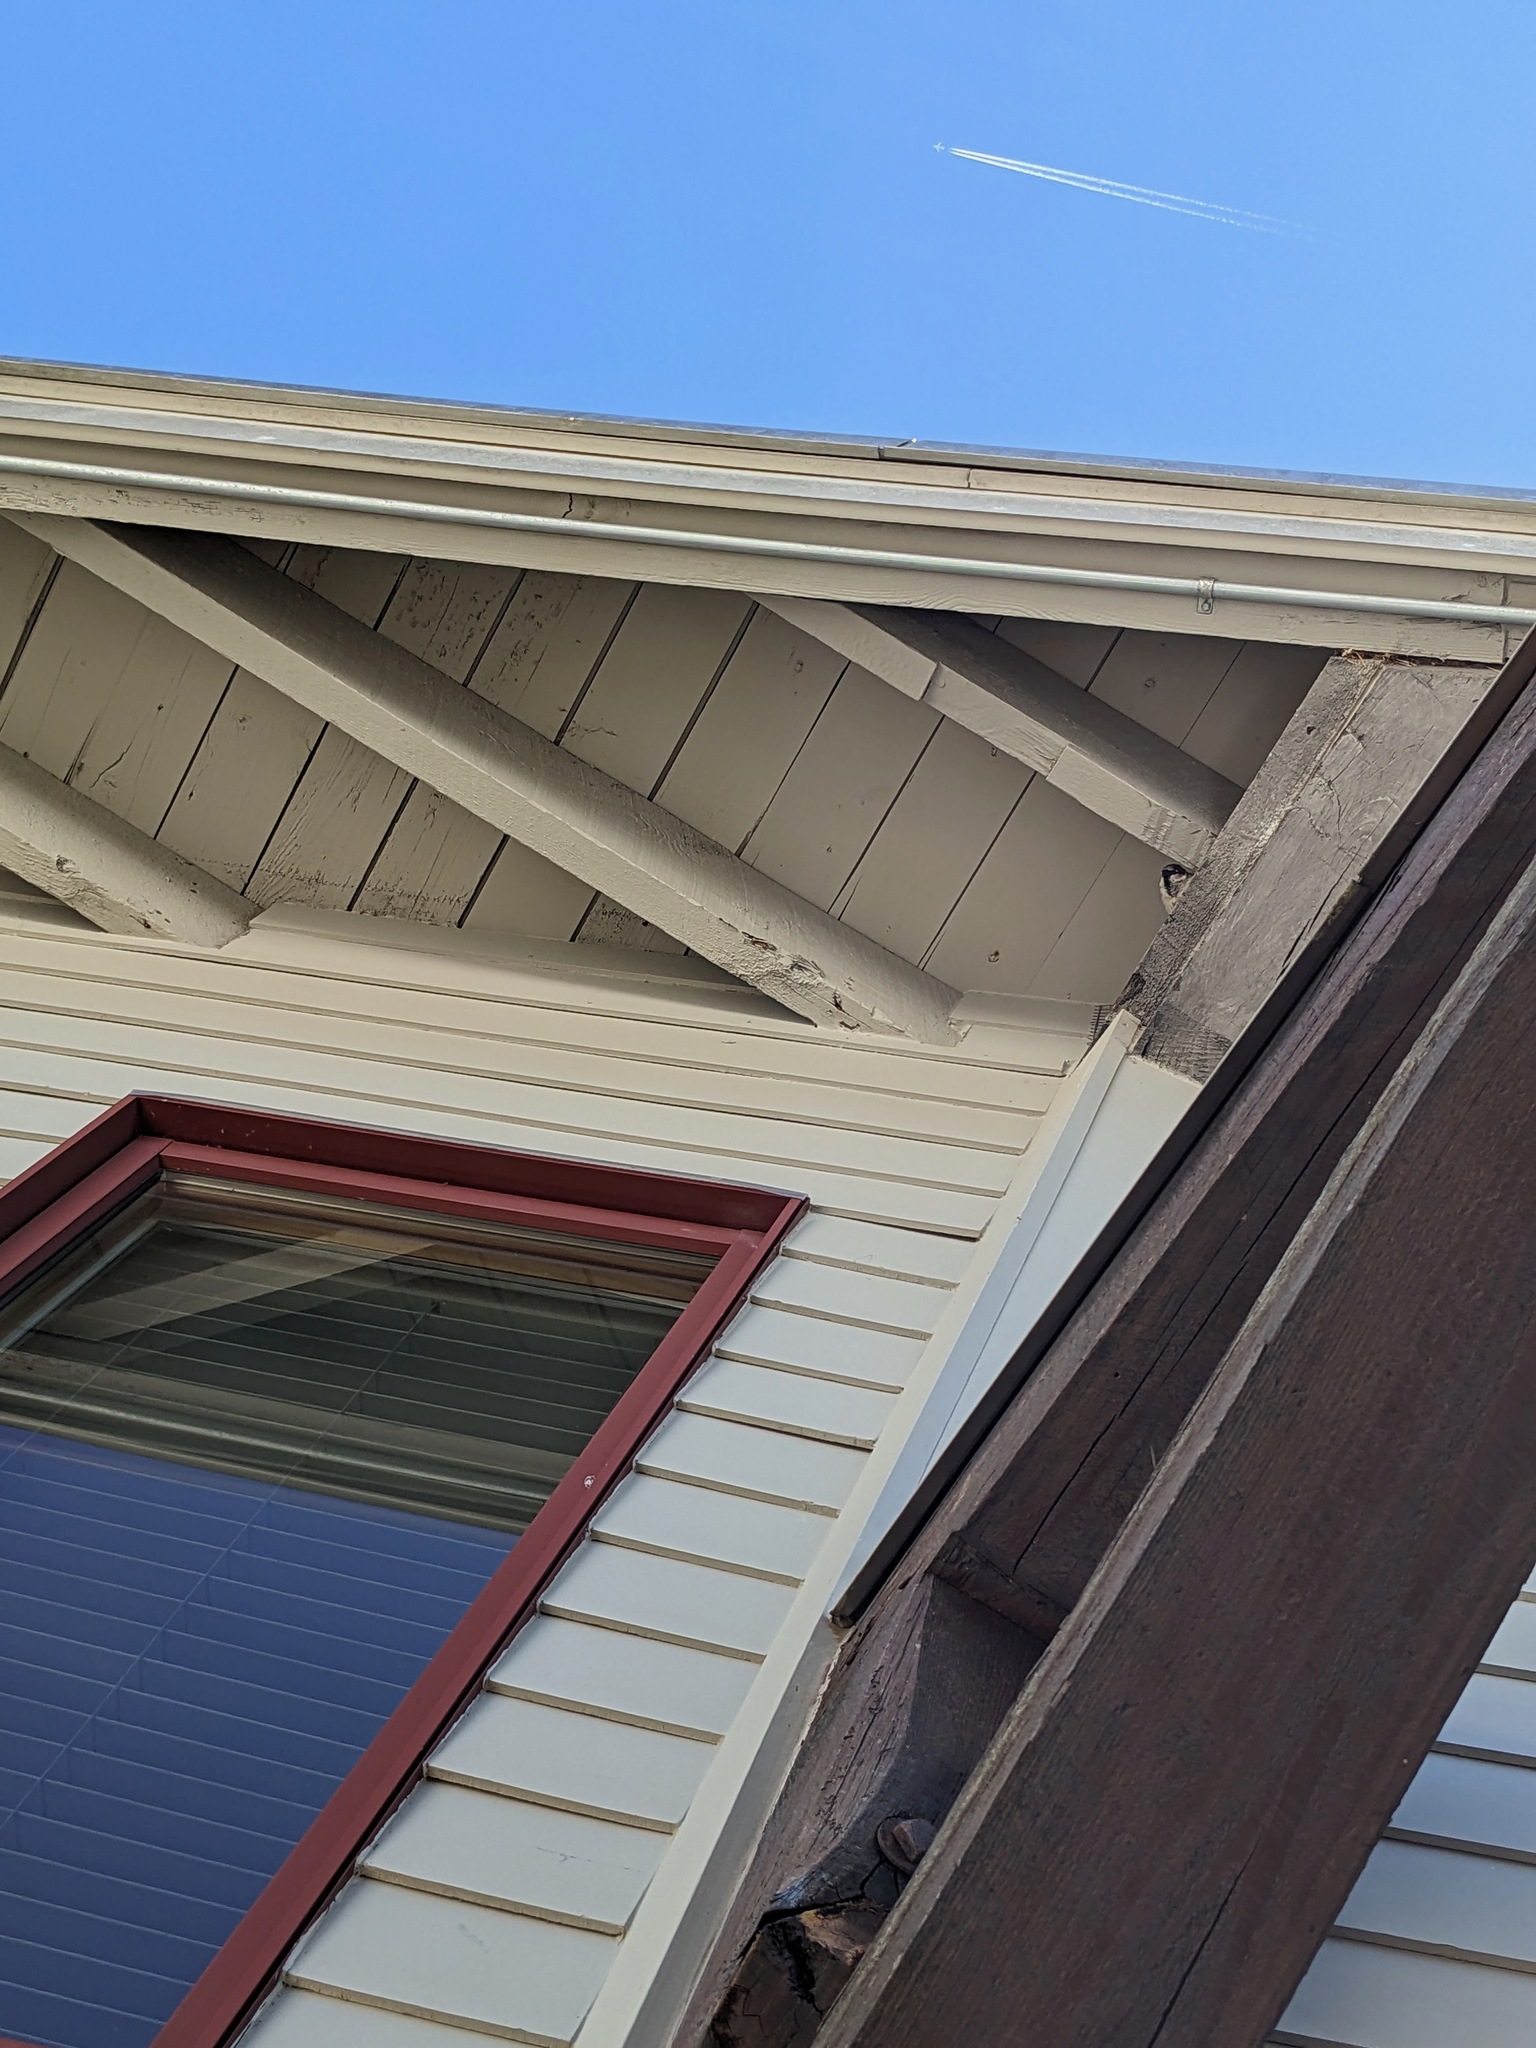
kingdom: Animalia
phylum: Chordata
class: Aves
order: Passeriformes
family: Passeridae
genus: Passer
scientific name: Passer domesticus
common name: House sparrow
